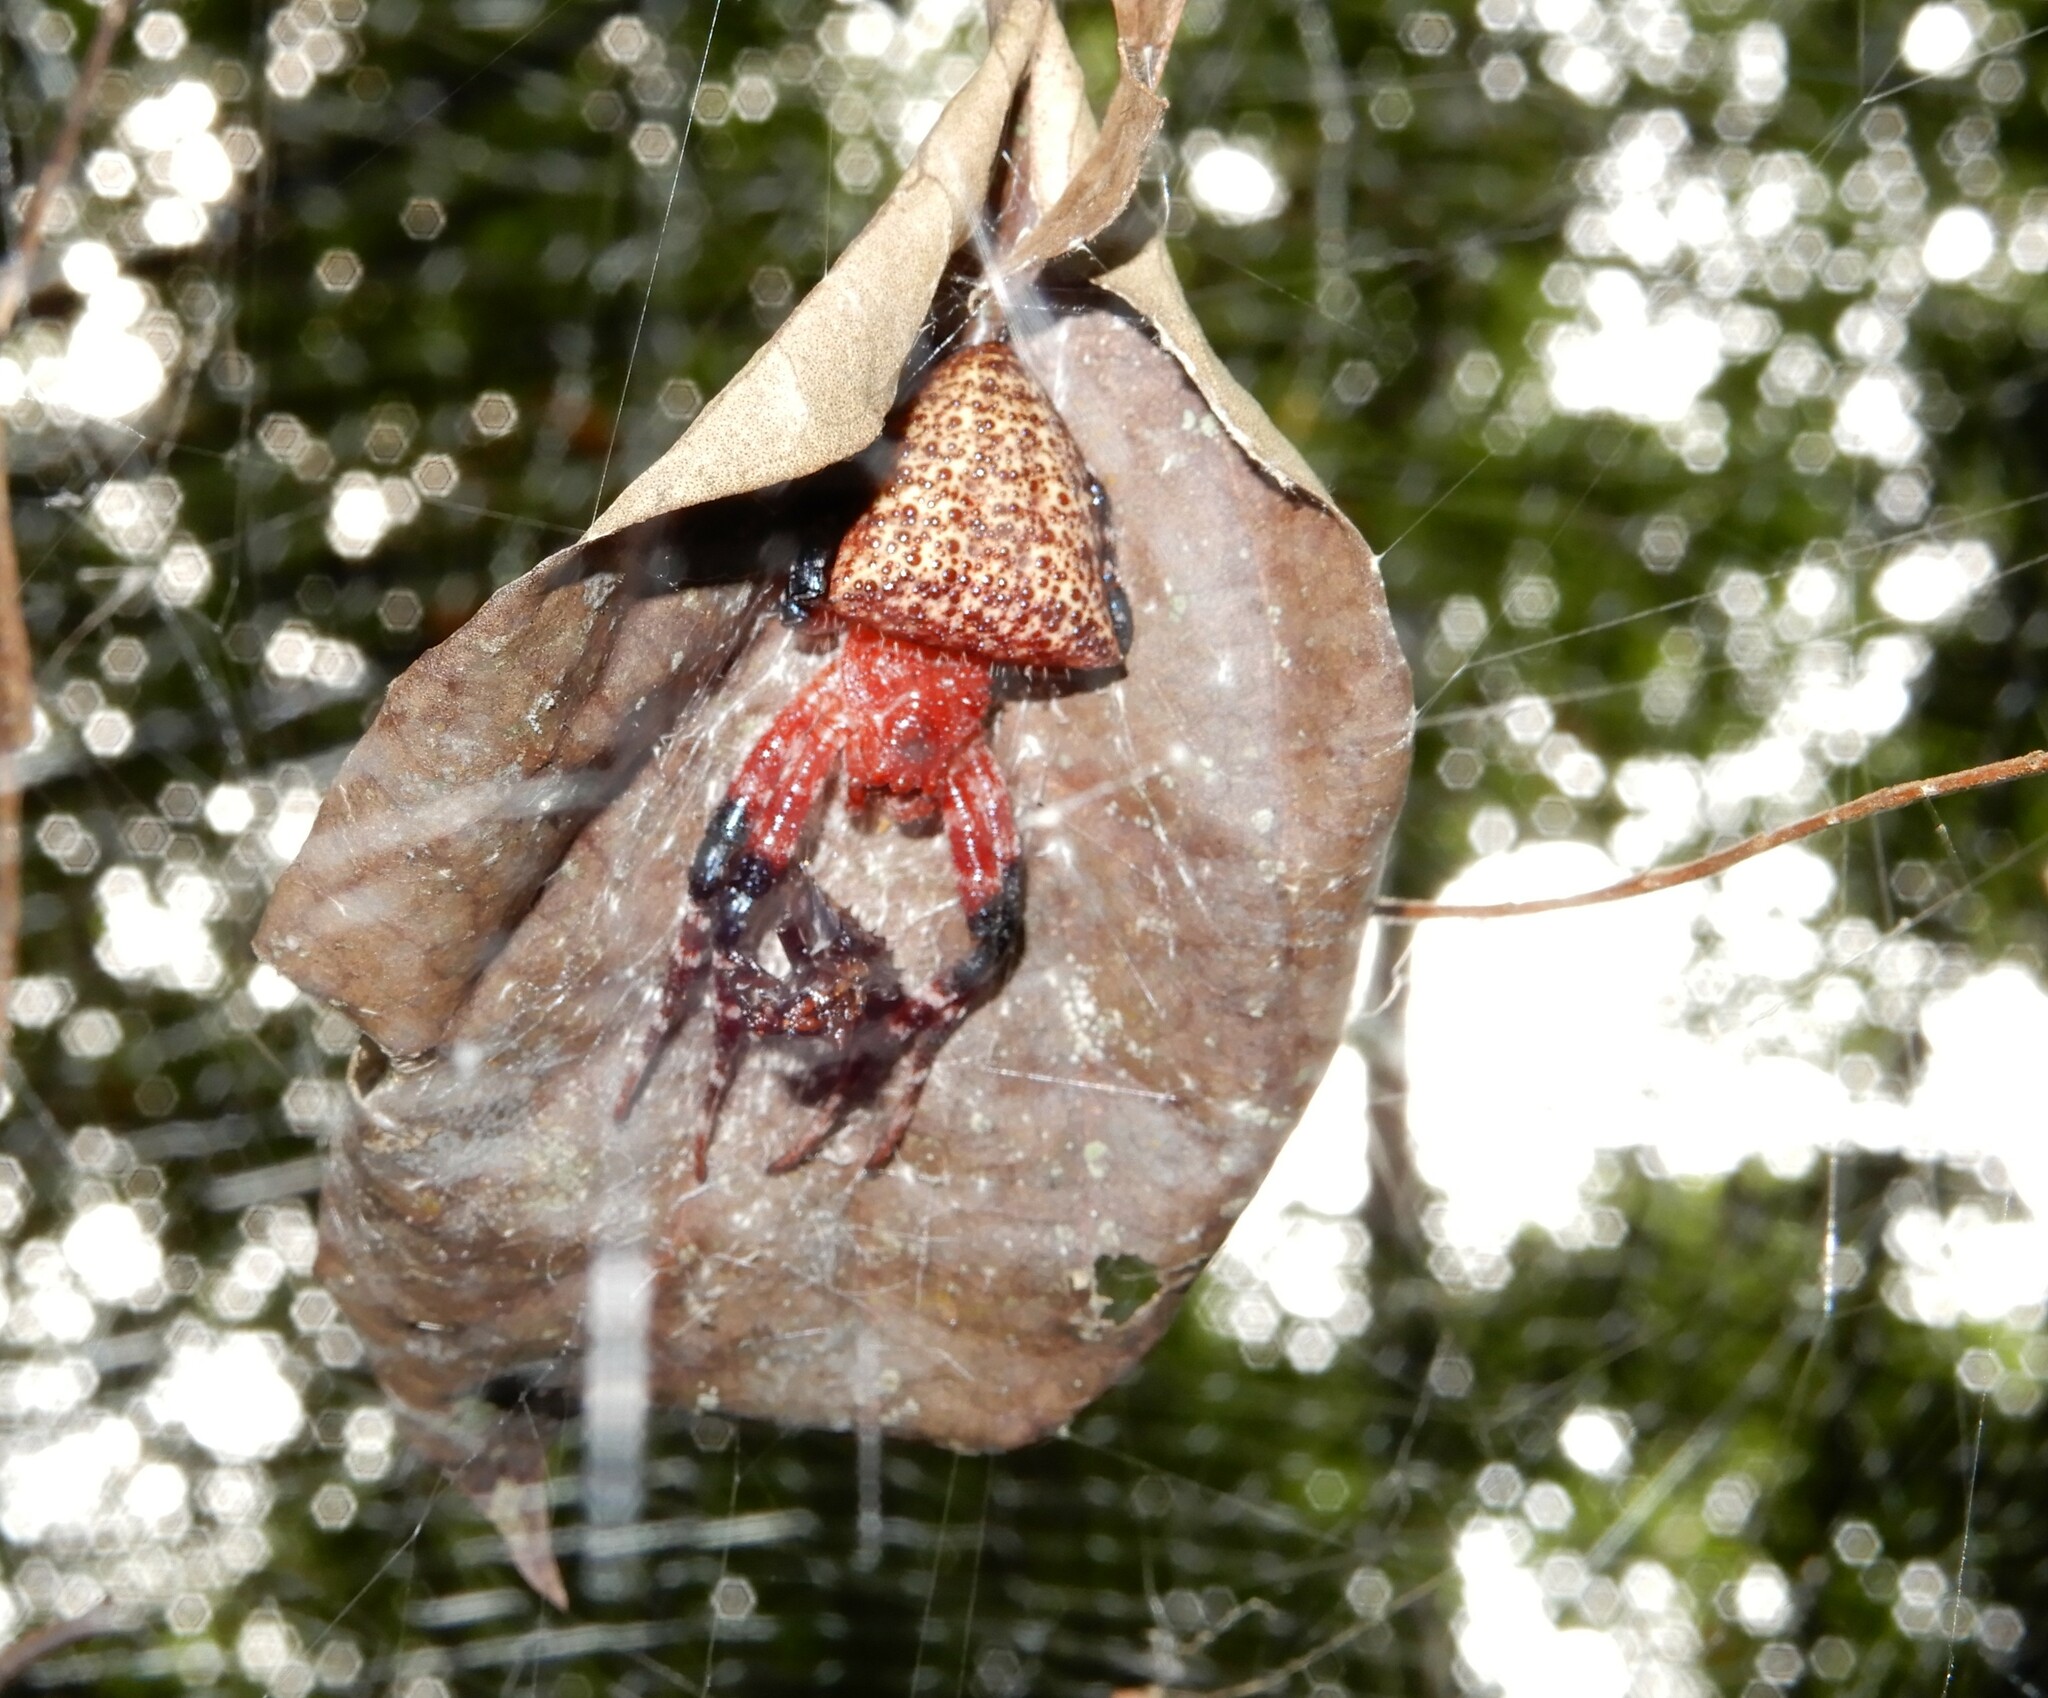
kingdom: Animalia
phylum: Arthropoda
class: Arachnida
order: Araneae
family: Araneidae
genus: Cyrtophora
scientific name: Cyrtophora unicolor
